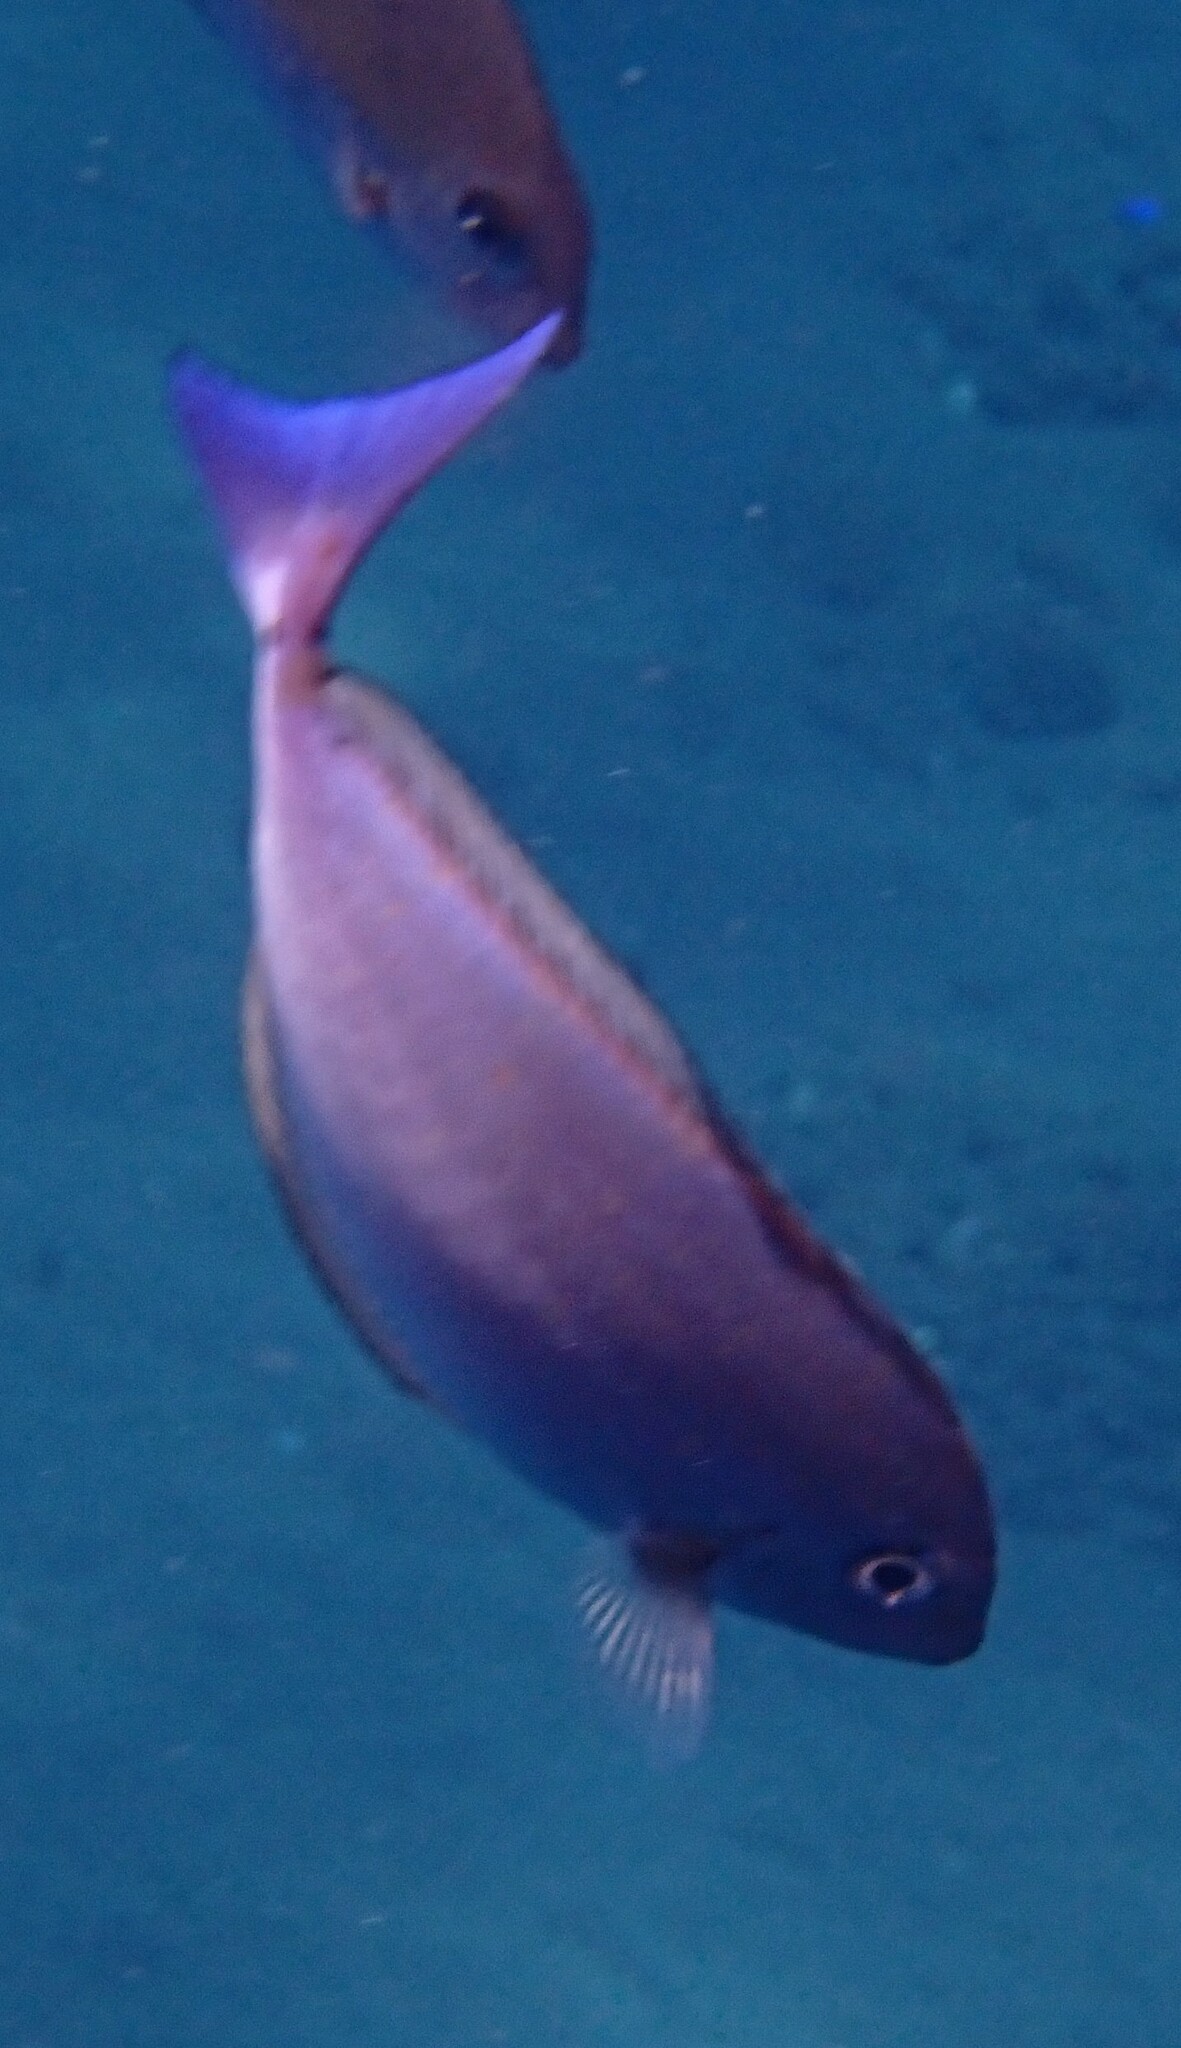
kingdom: Animalia
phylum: Chordata
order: Perciformes
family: Acanthuridae
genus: Naso
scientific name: Naso caeruleacauda
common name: Bluetail unicornfish
